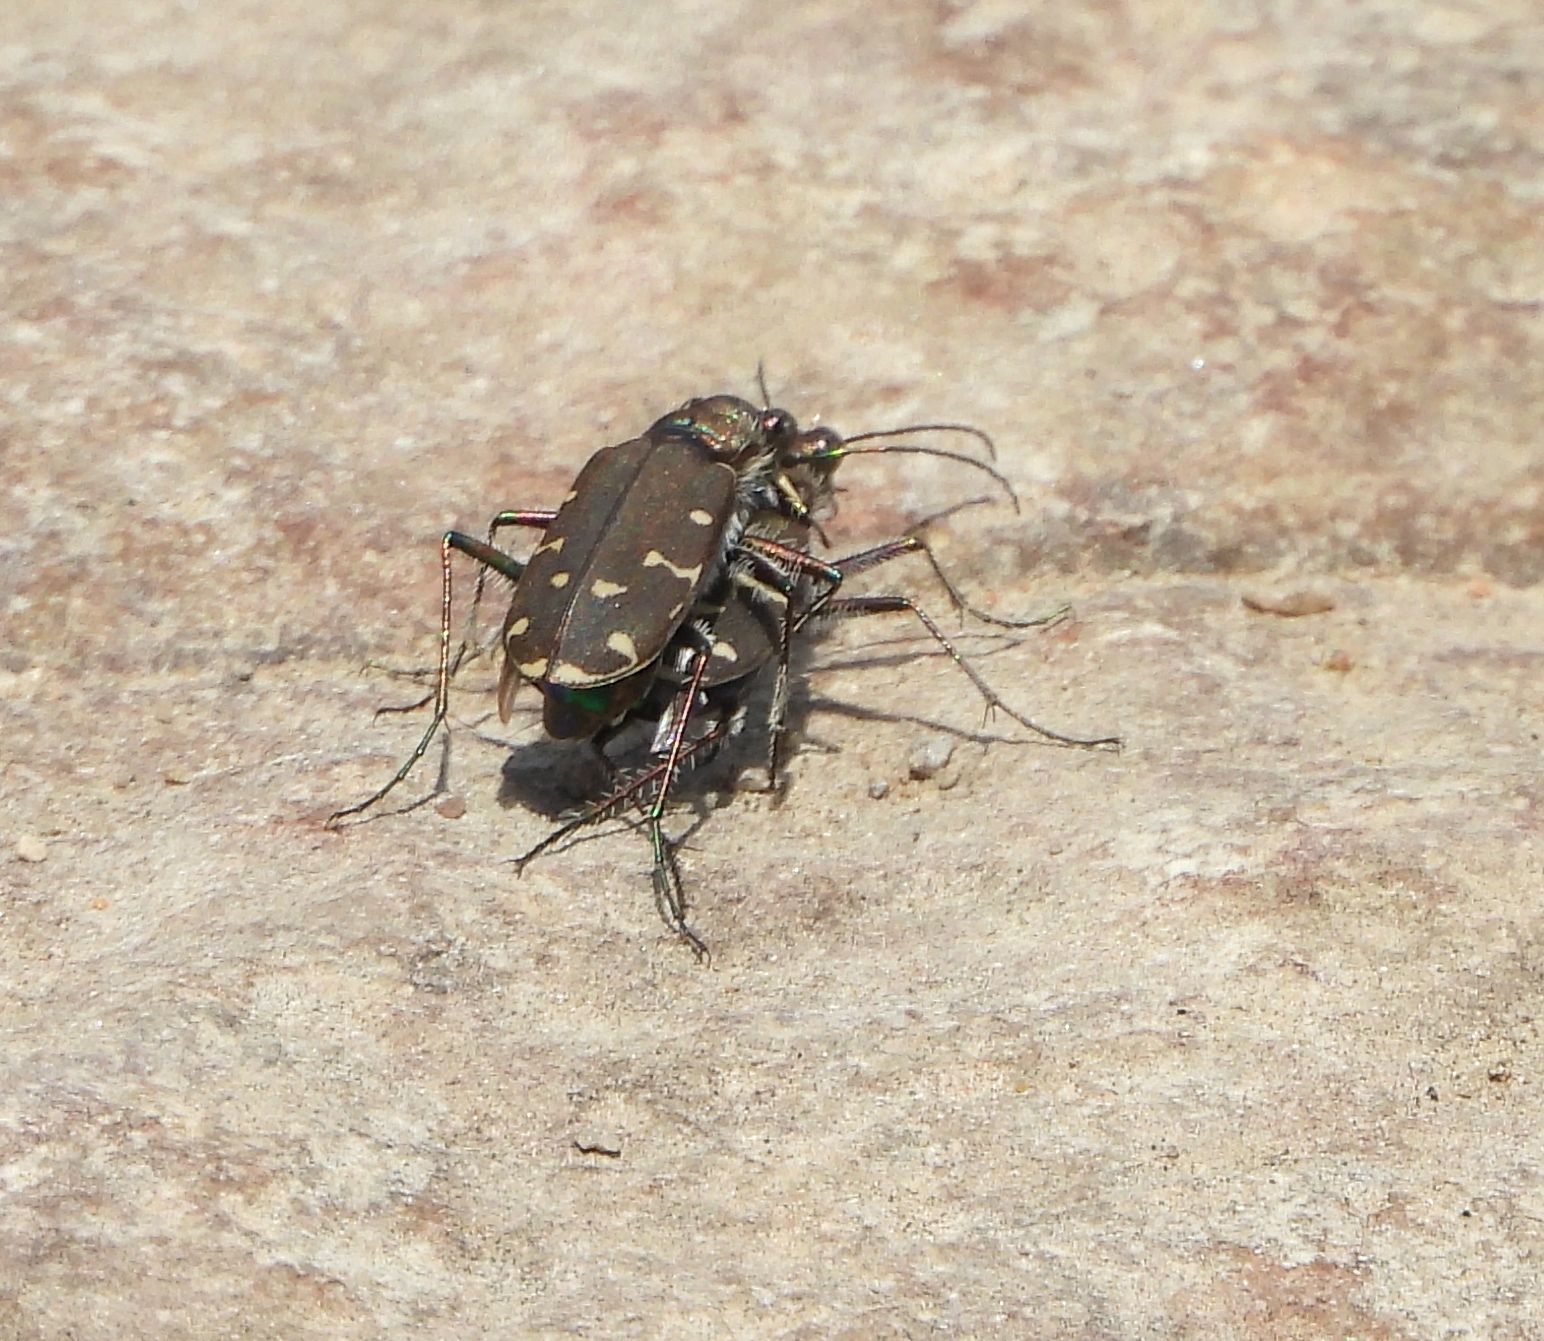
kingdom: Animalia
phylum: Arthropoda
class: Insecta
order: Coleoptera
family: Carabidae
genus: Cicindela
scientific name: Cicindela duodecimguttata
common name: Twelve-spotted tiger beetle
